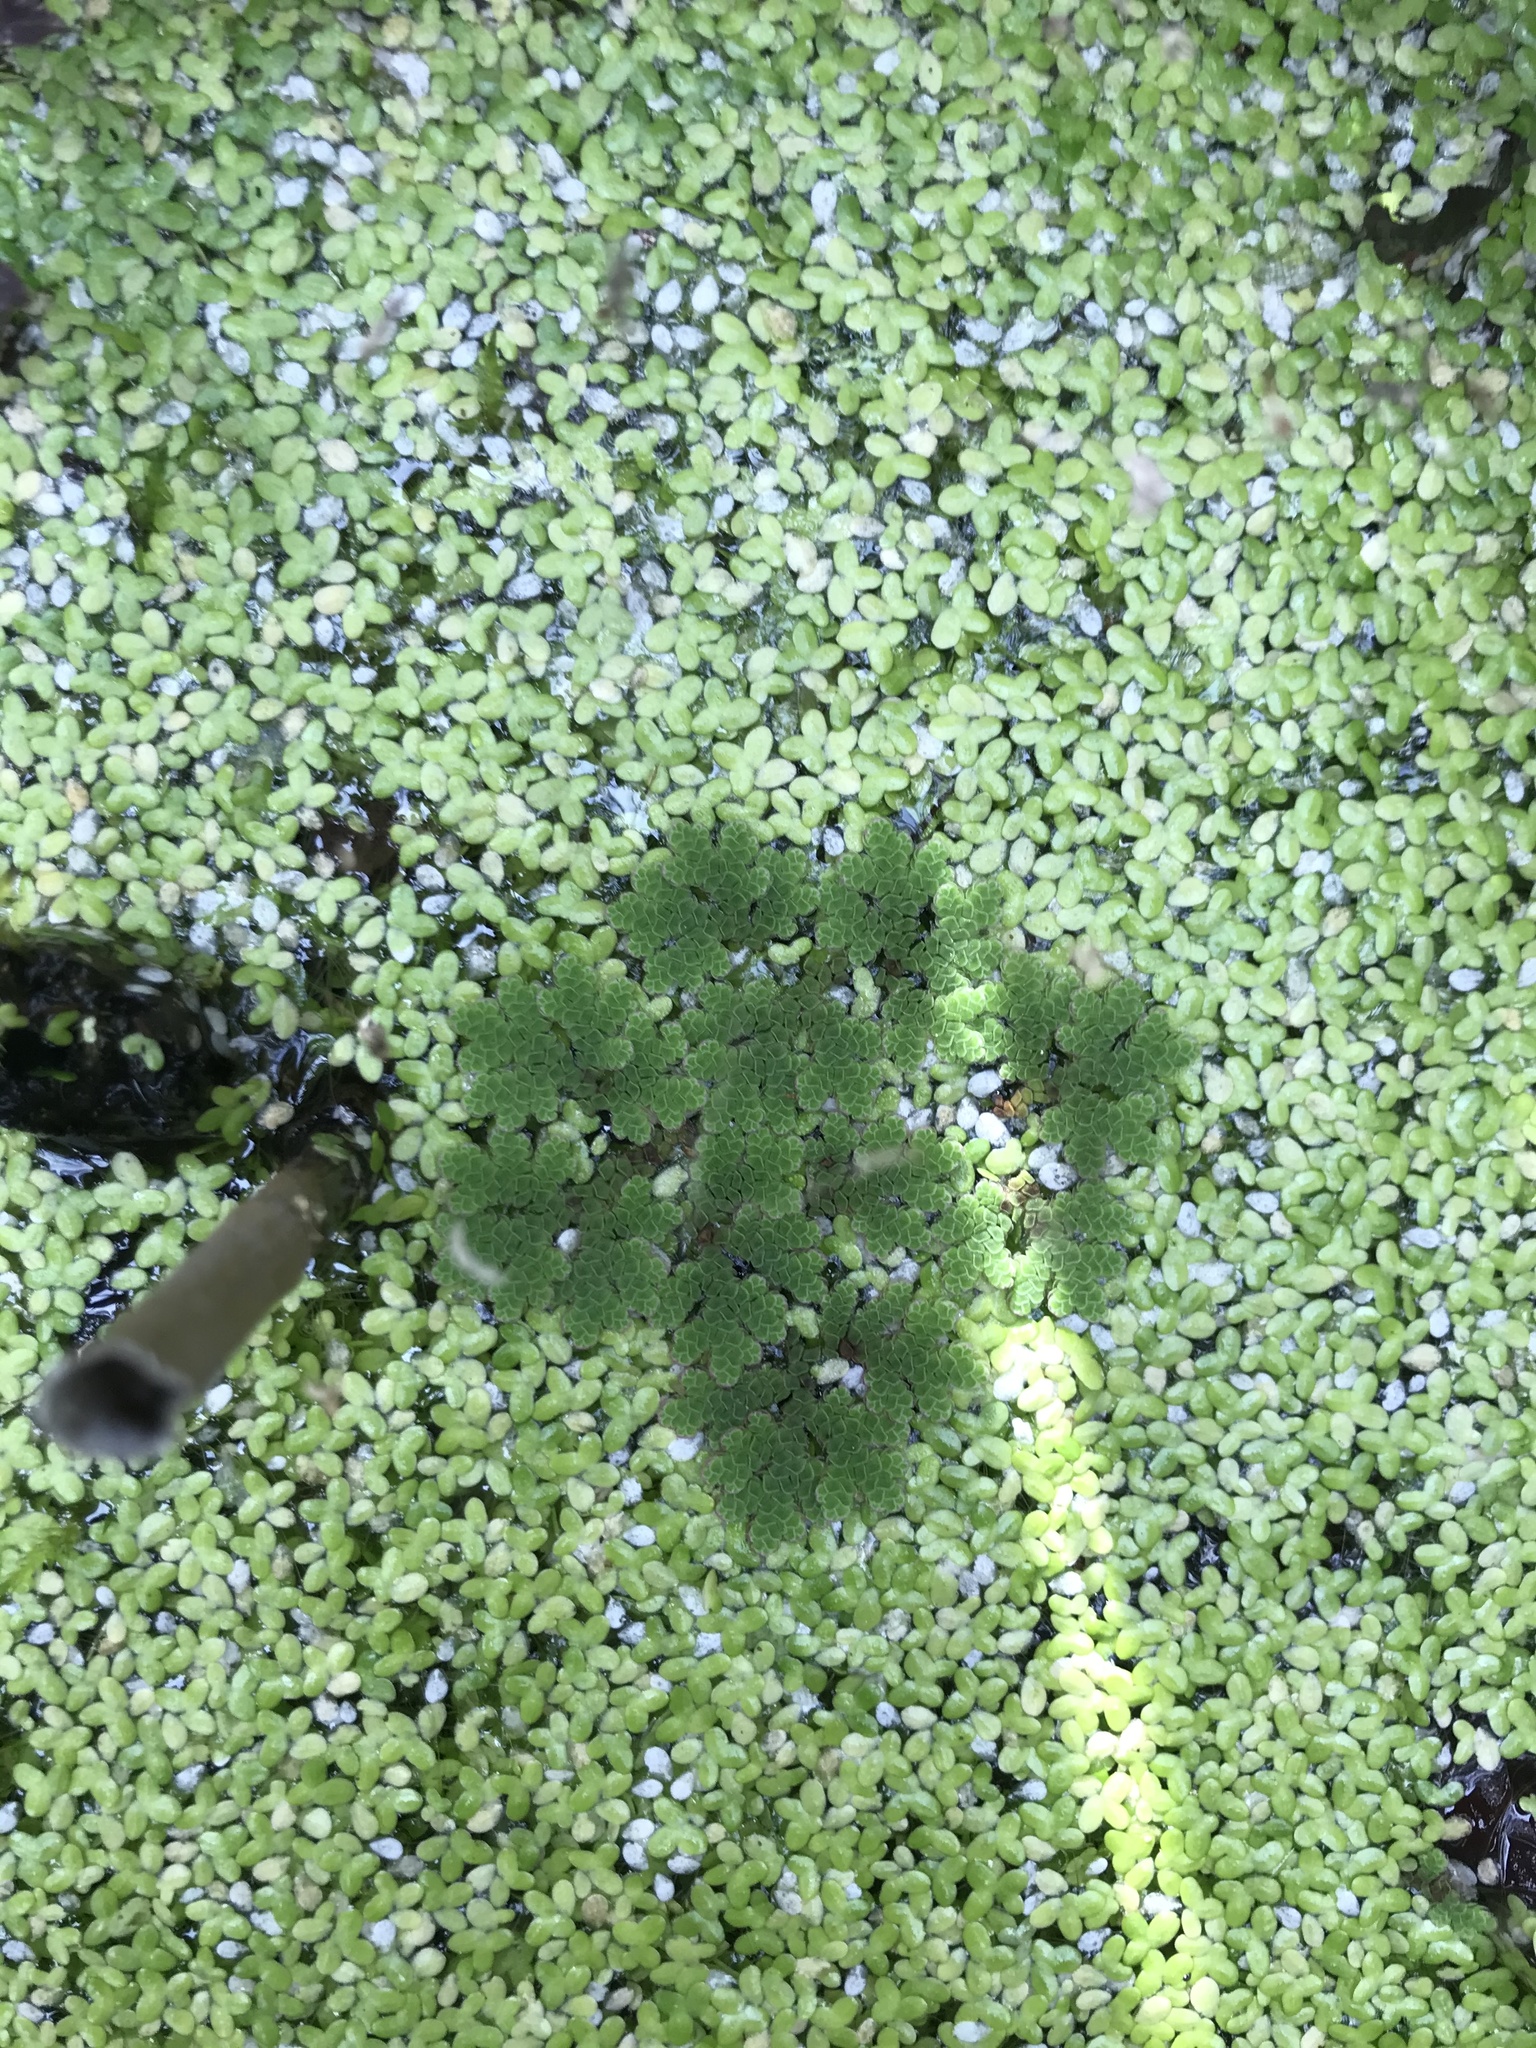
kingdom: Plantae
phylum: Tracheophyta
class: Polypodiopsida
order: Salviniales
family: Salviniaceae
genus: Azolla
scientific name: Azolla rubra
